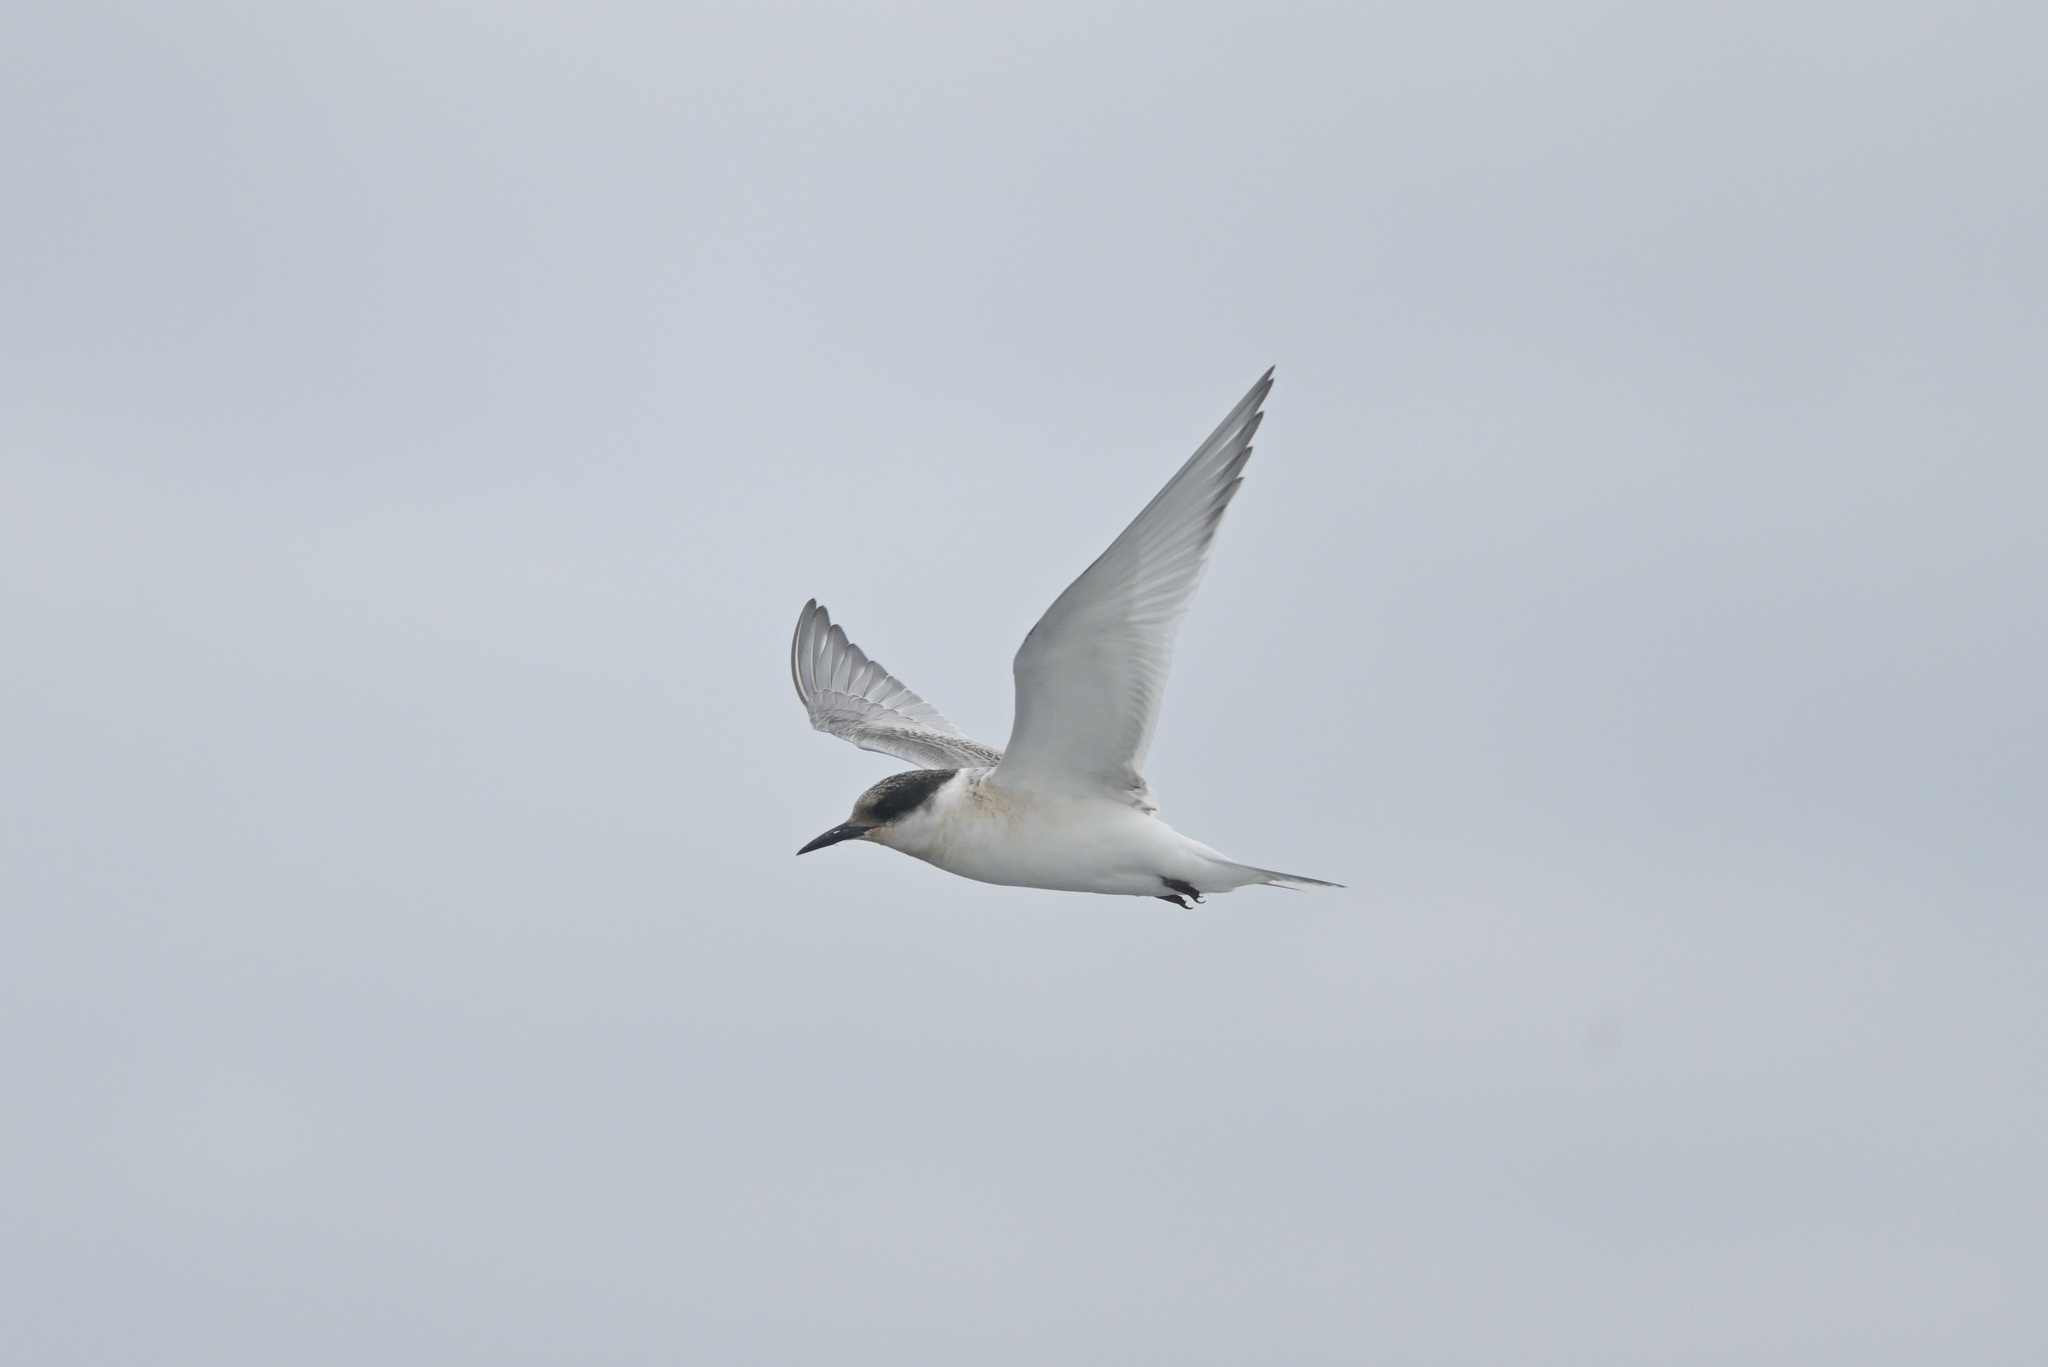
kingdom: Animalia
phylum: Chordata
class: Aves
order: Charadriiformes
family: Laridae
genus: Sterna
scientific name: Sterna vittata
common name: Antarctic tern
